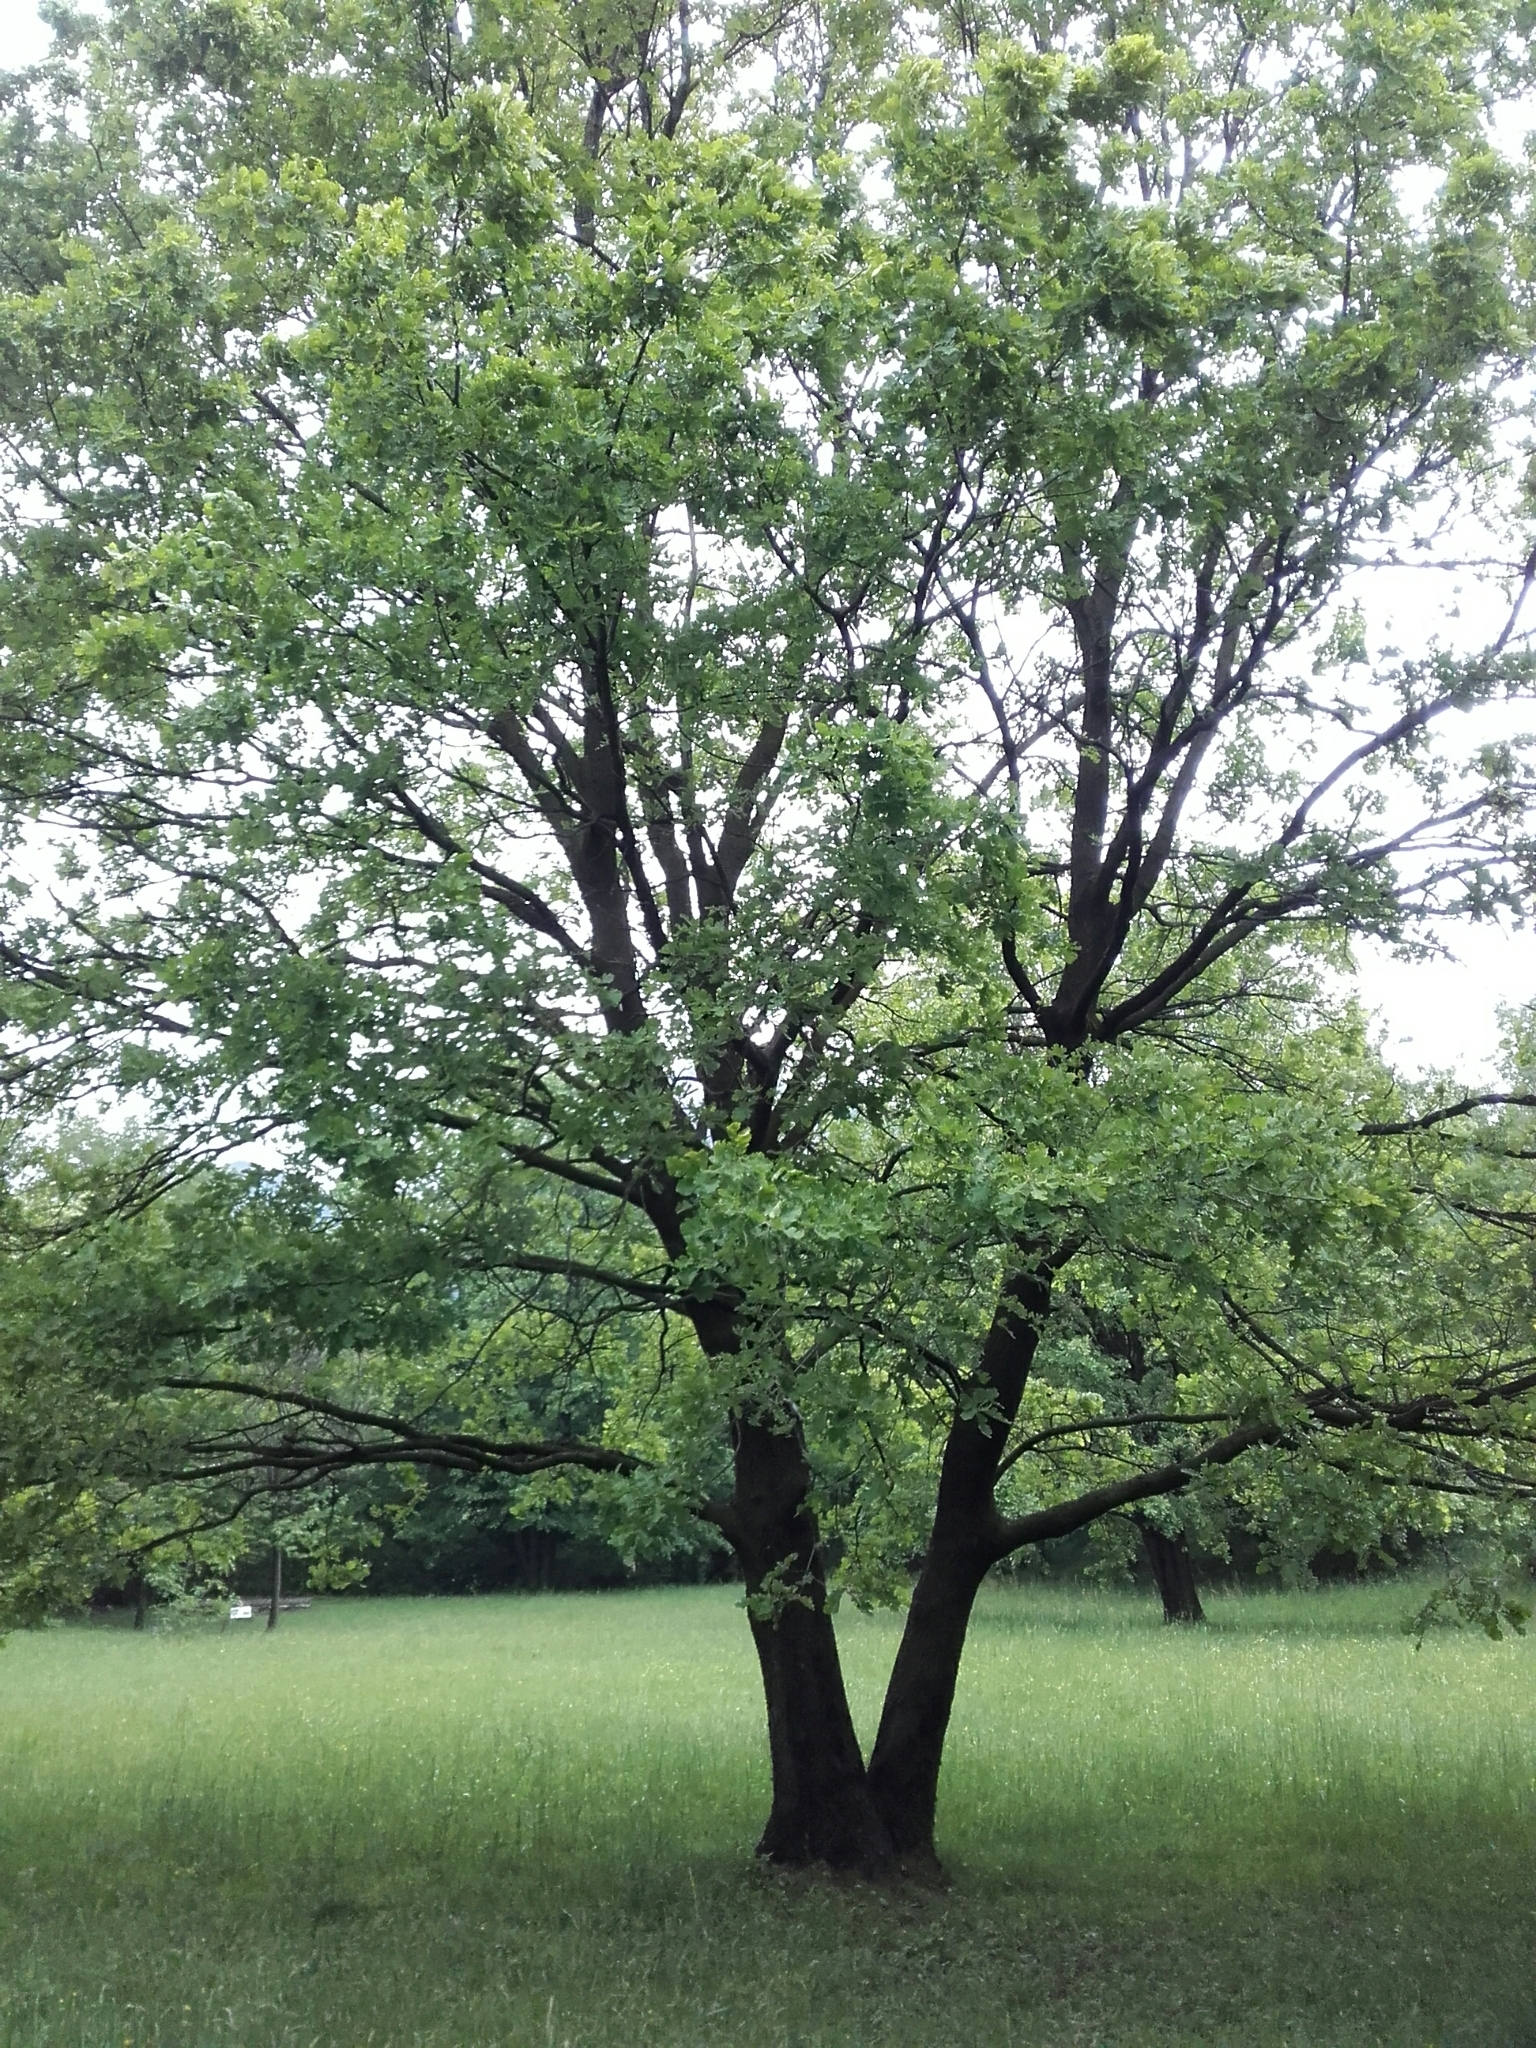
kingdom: Plantae
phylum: Tracheophyta
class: Magnoliopsida
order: Fagales
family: Fagaceae
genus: Quercus
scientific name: Quercus robur
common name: Pedunculate oak
